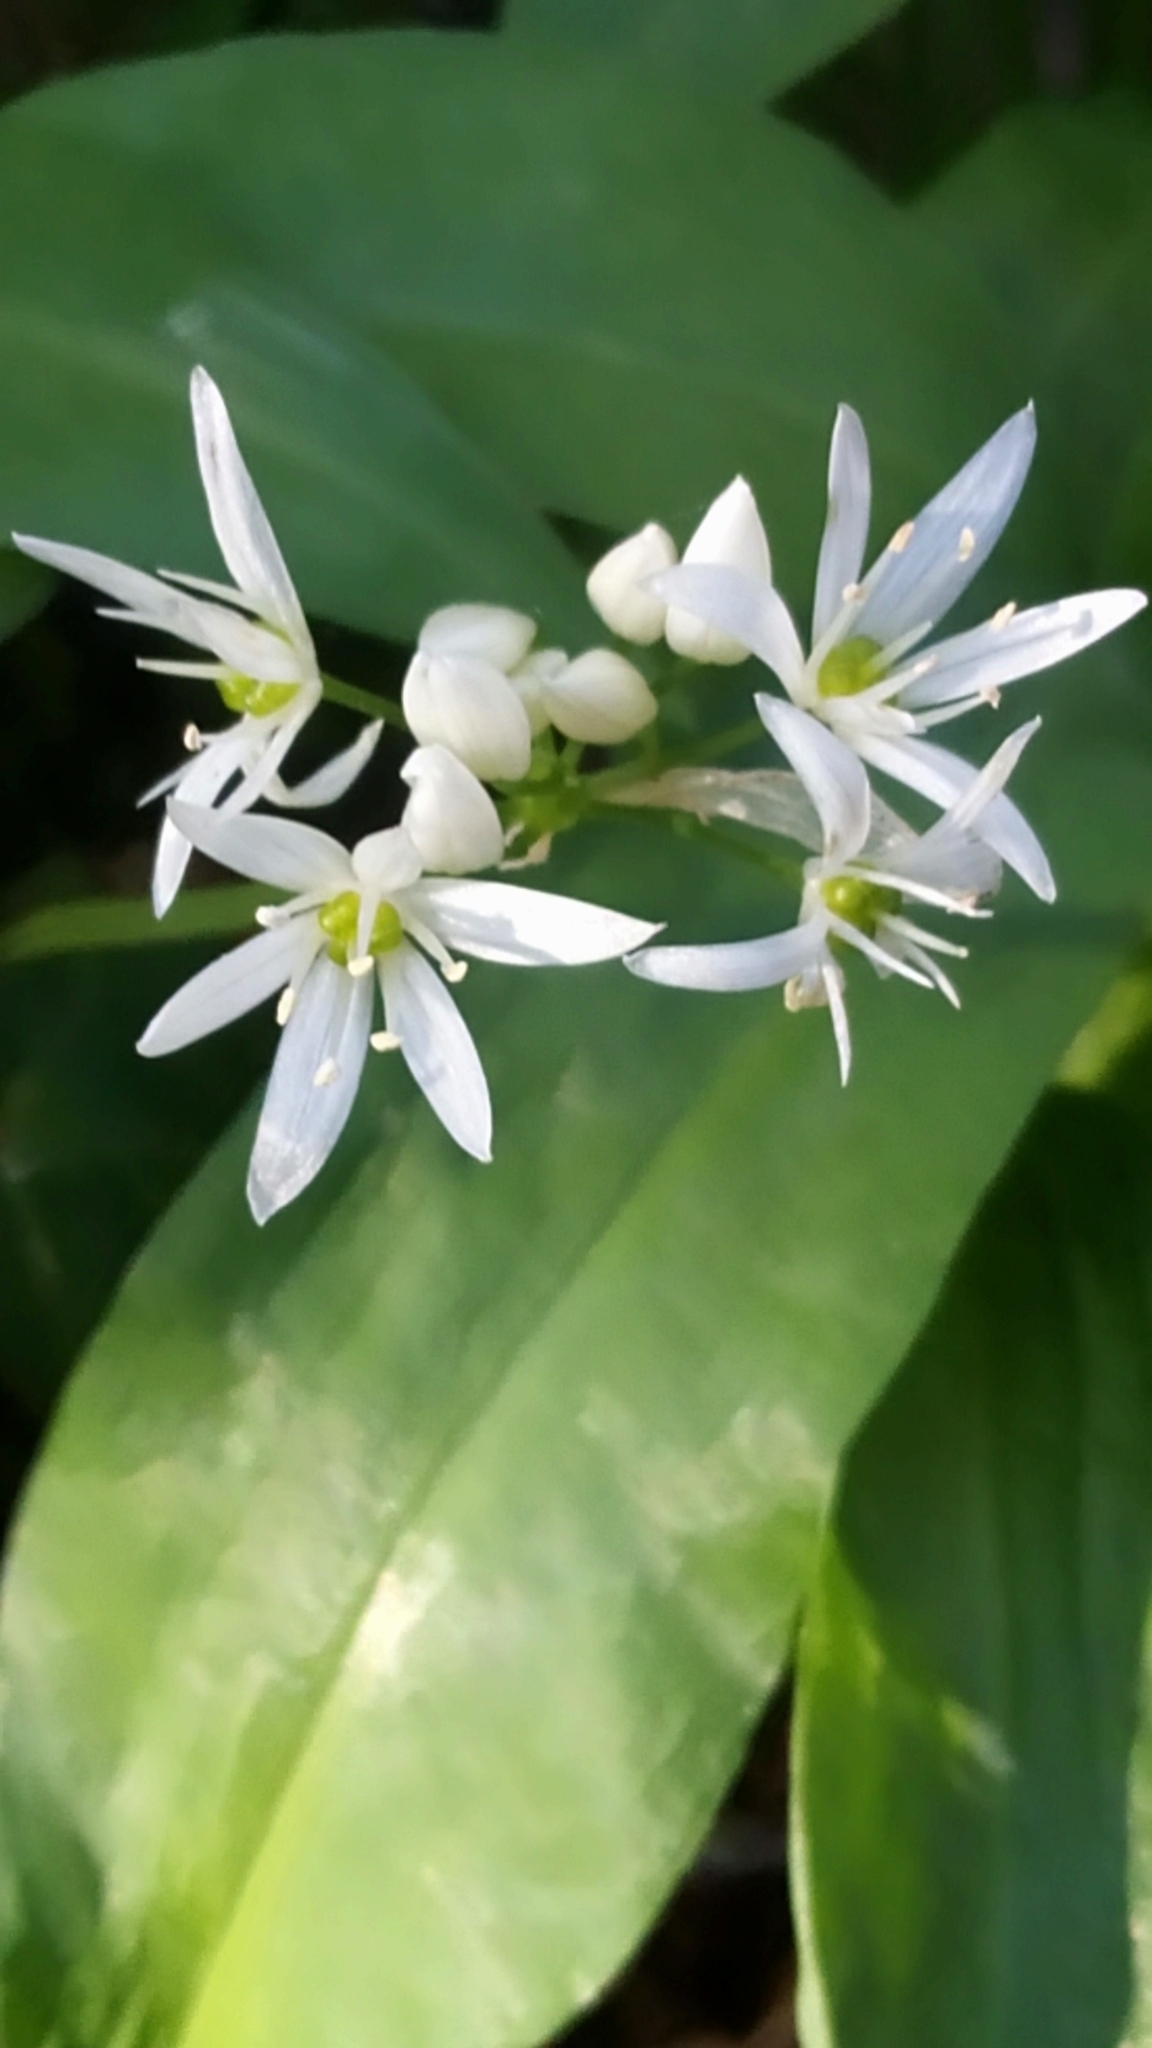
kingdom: Plantae
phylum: Tracheophyta
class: Liliopsida
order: Asparagales
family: Amaryllidaceae
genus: Allium
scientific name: Allium ursinum
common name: Ramsons
